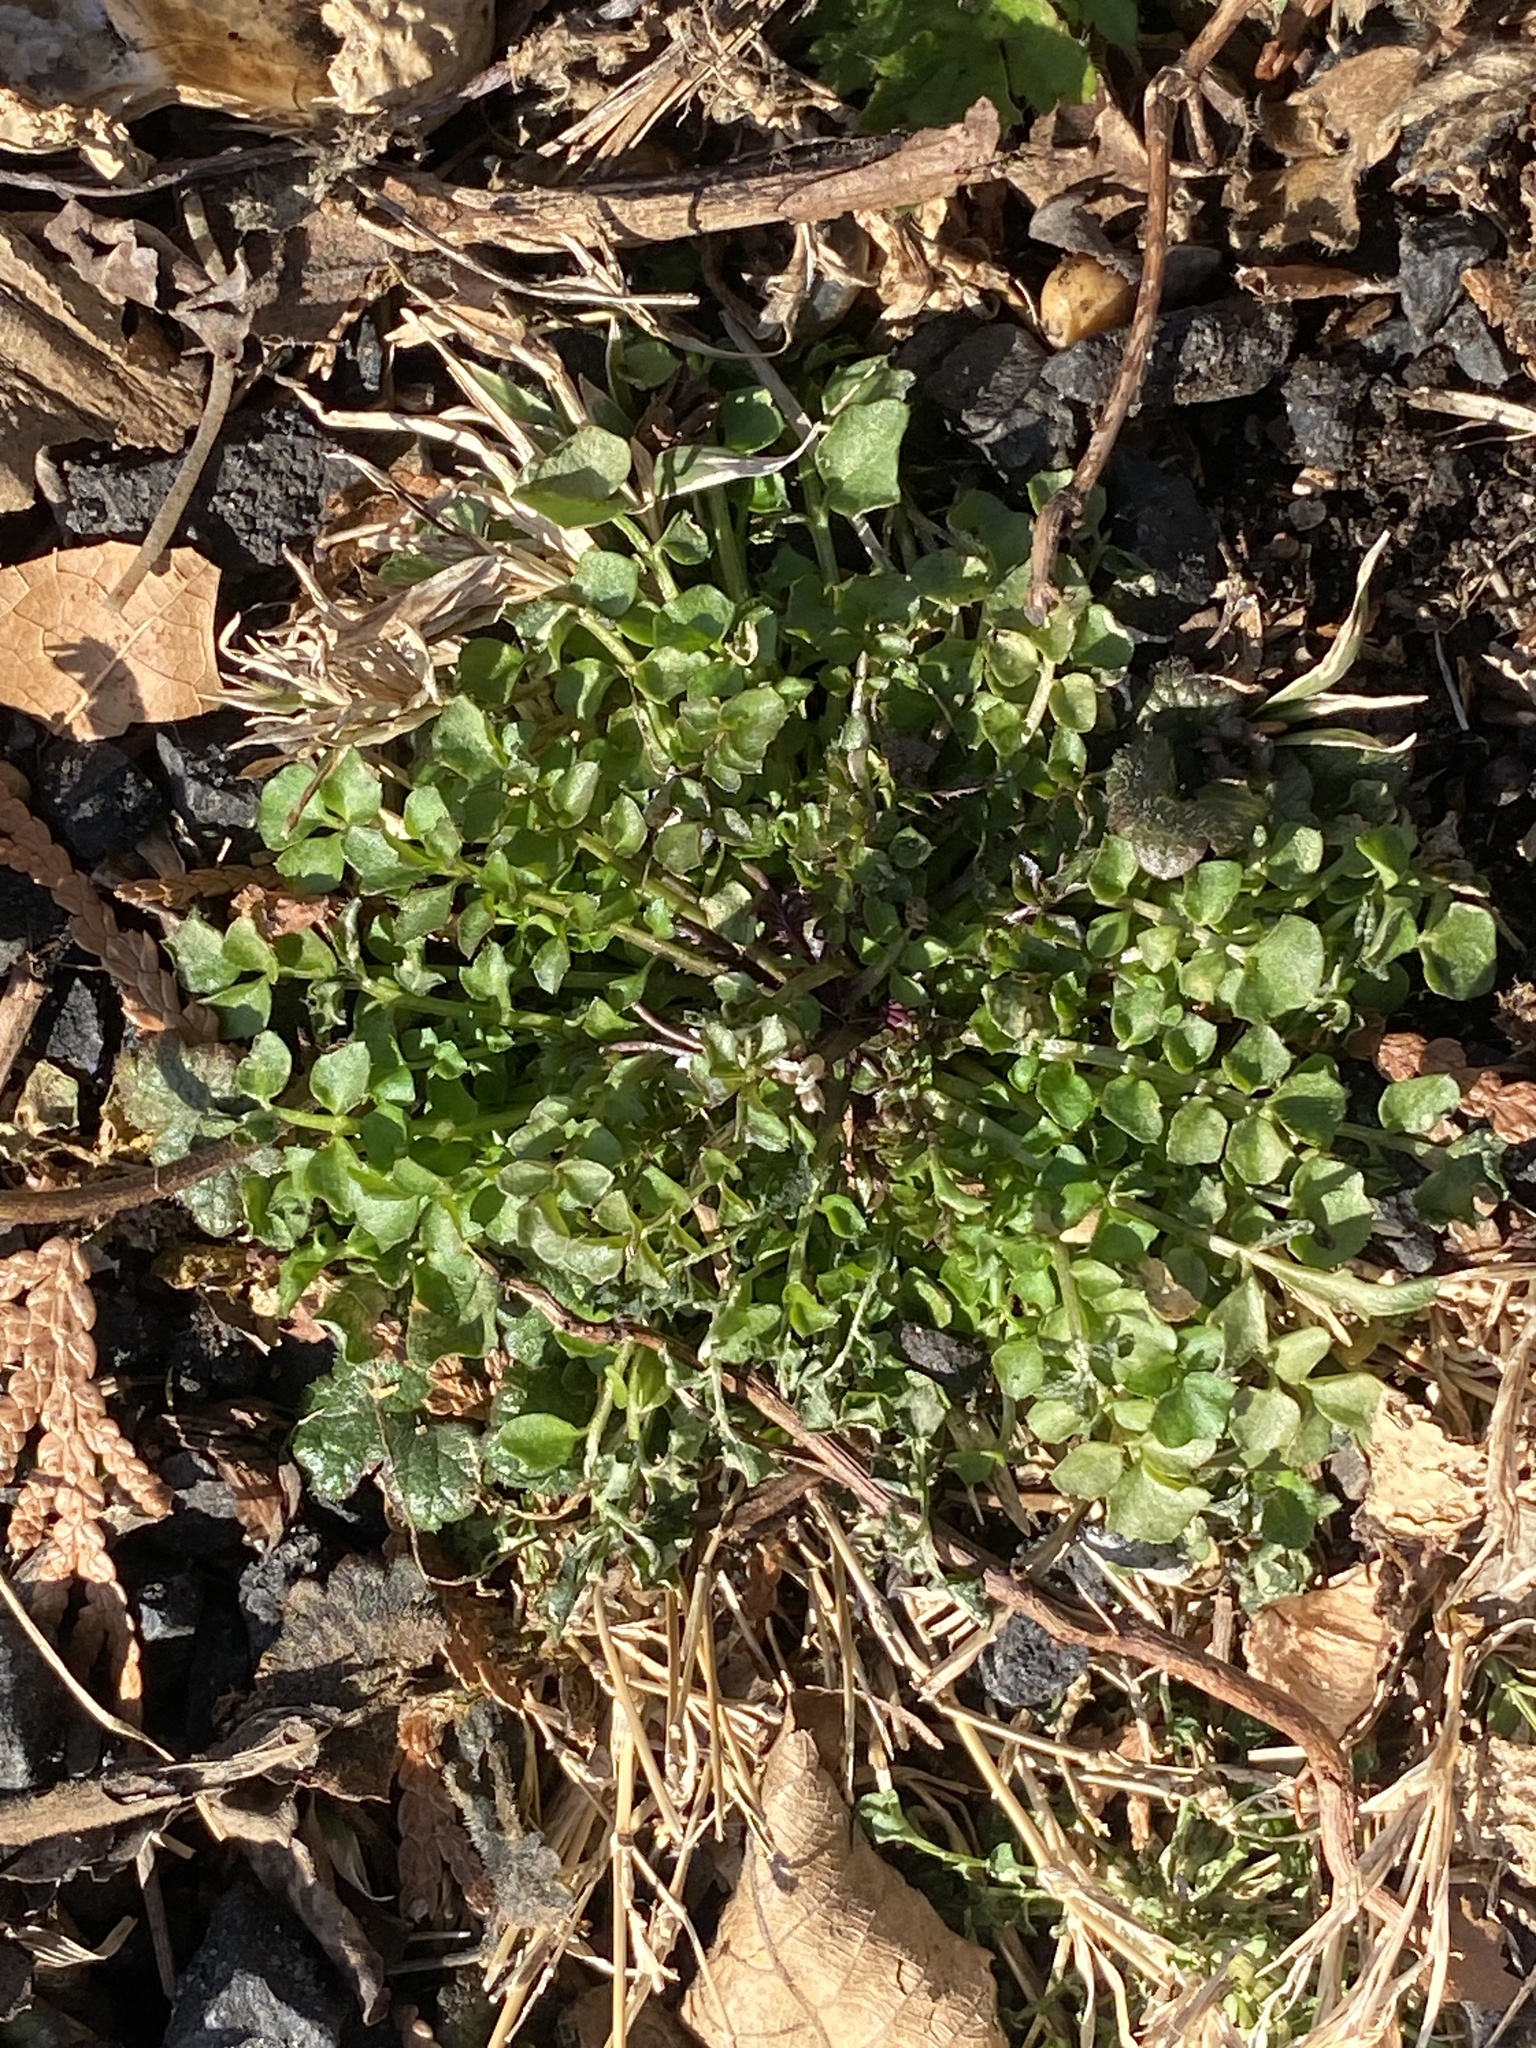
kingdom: Plantae
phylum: Tracheophyta
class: Magnoliopsida
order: Brassicales
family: Brassicaceae
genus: Cardamine
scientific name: Cardamine hirsuta
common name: Hairy bittercress
